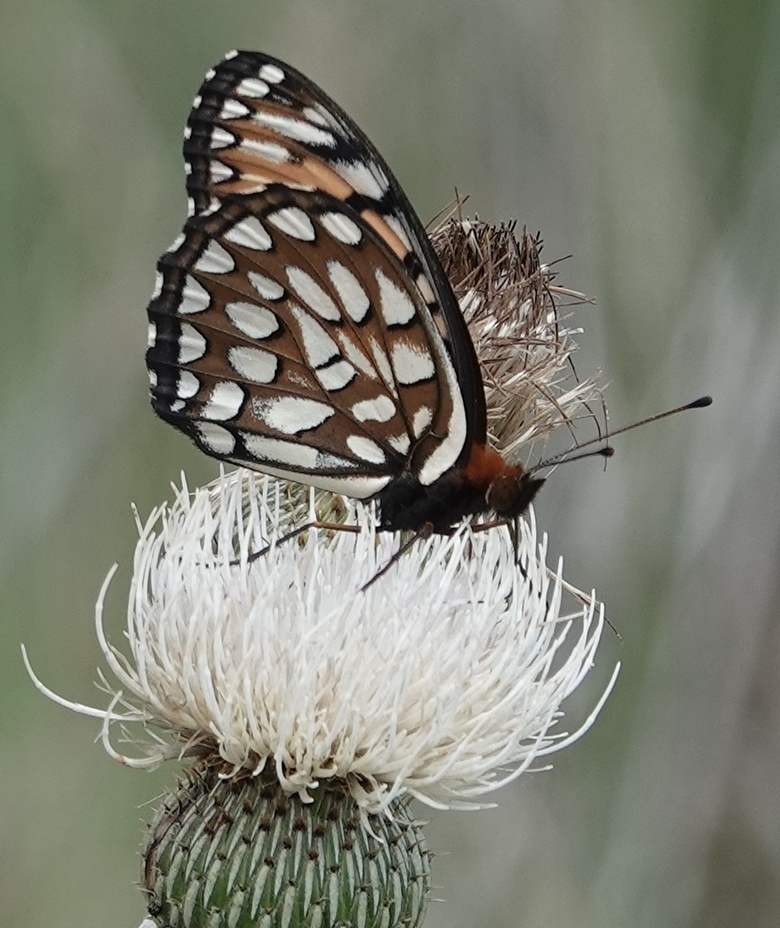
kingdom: Animalia
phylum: Arthropoda
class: Insecta
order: Lepidoptera
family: Nymphalidae
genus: Speyeria
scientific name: Speyeria idalia
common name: Regal fritillary
